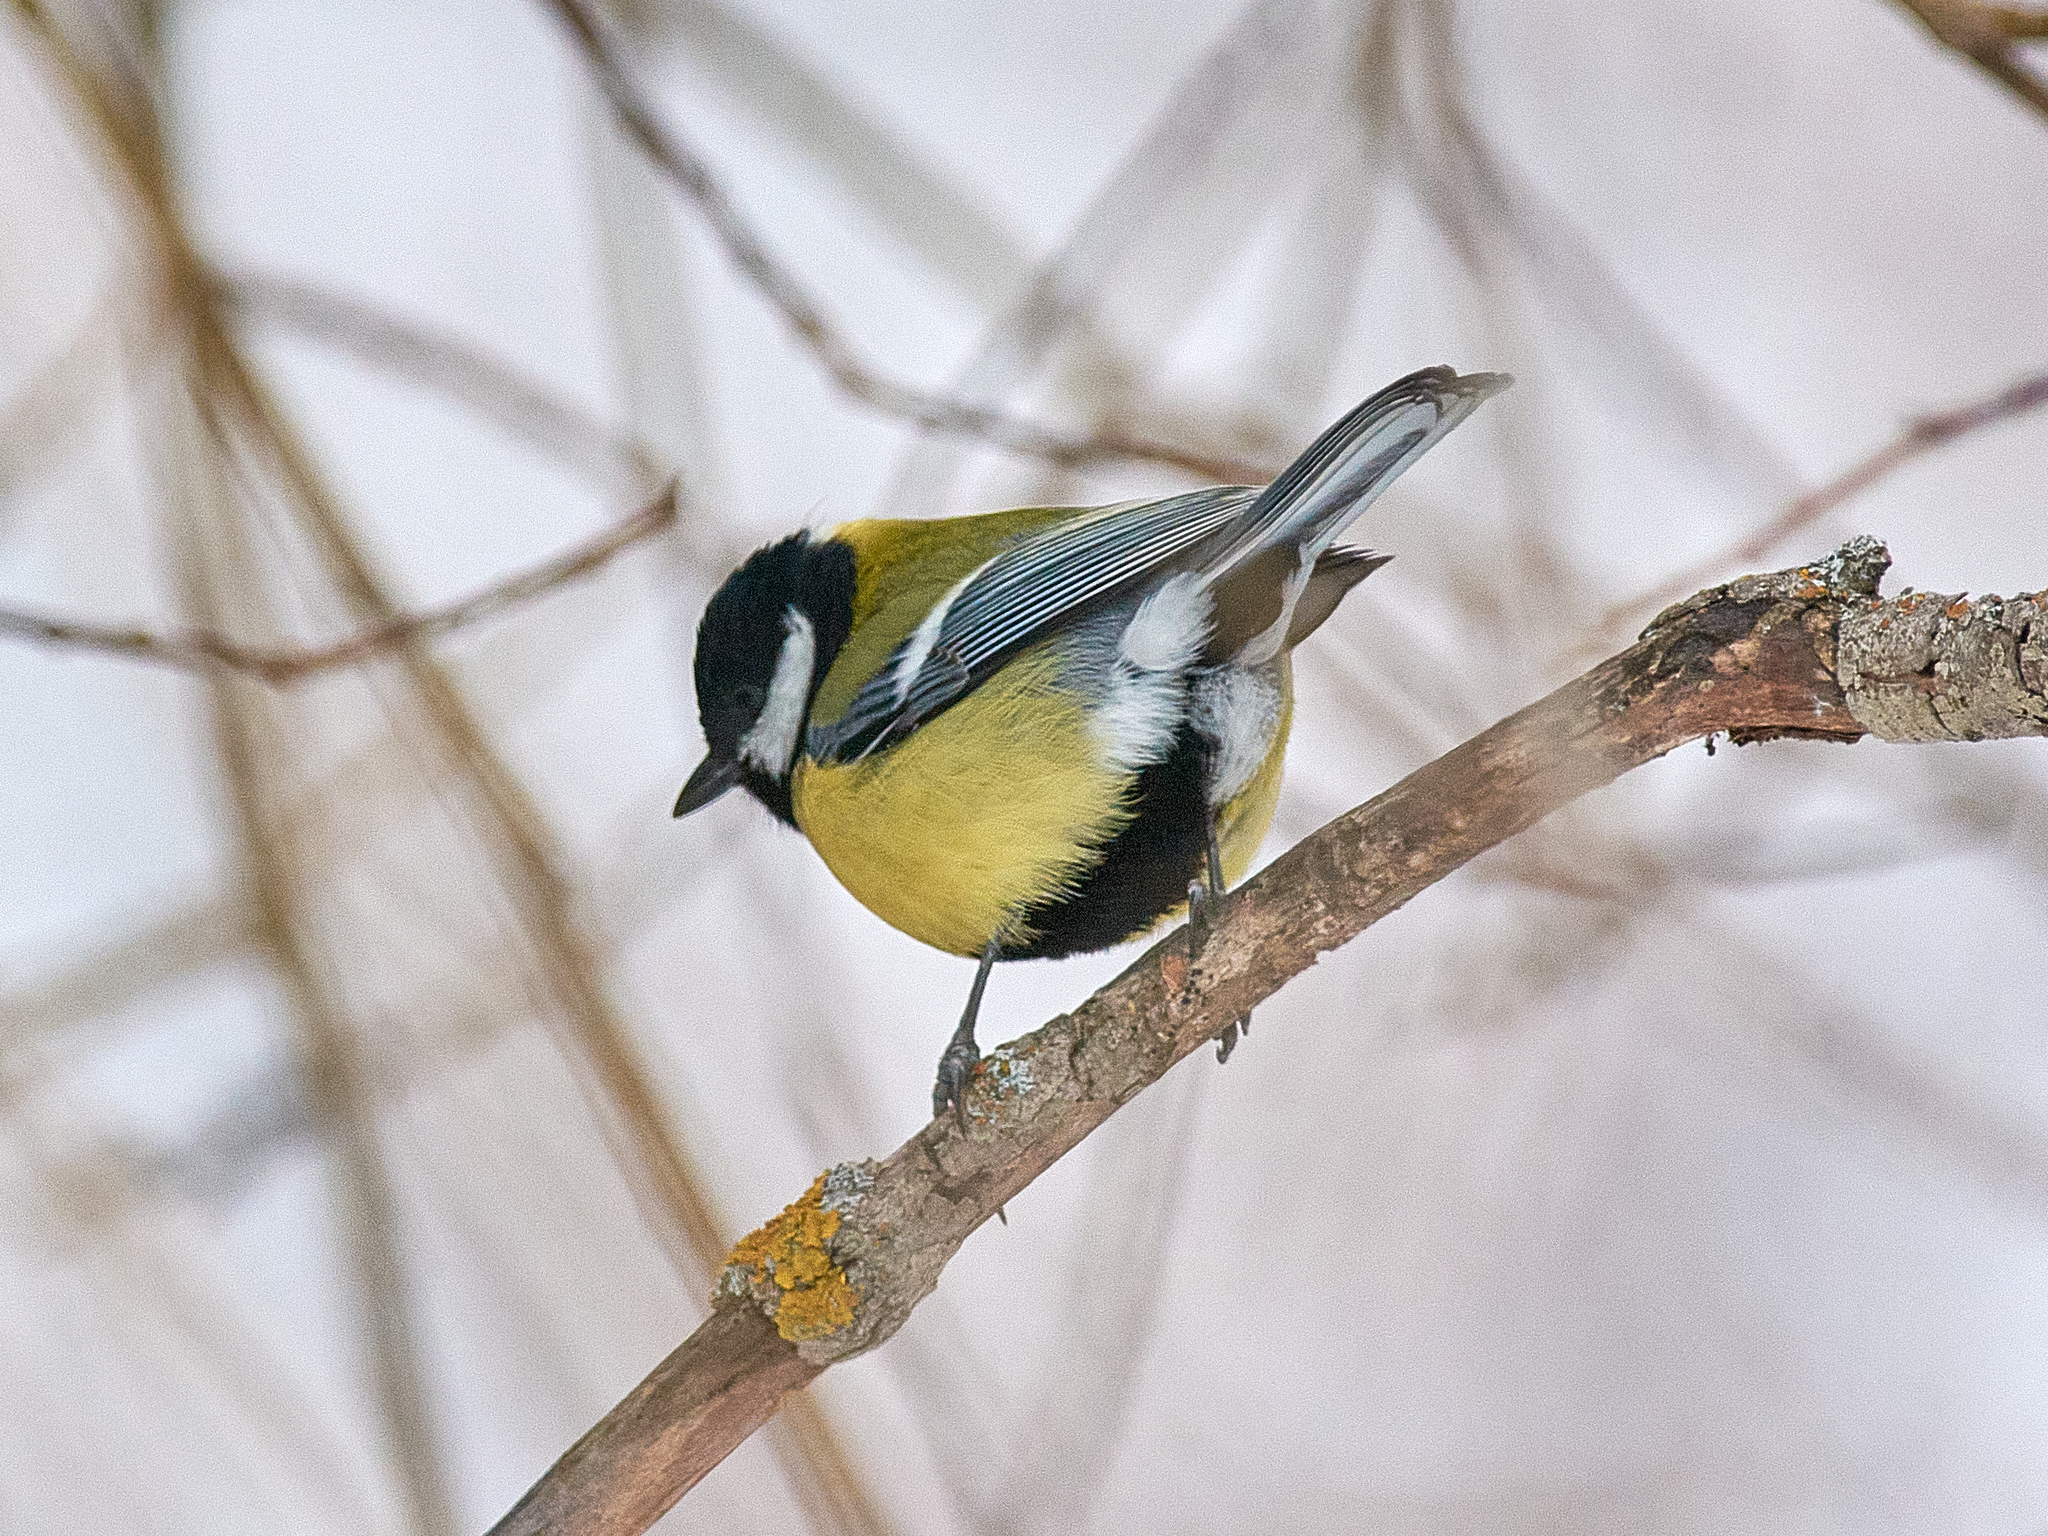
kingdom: Animalia
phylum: Chordata
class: Aves
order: Passeriformes
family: Paridae
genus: Parus
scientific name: Parus major
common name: Great tit
